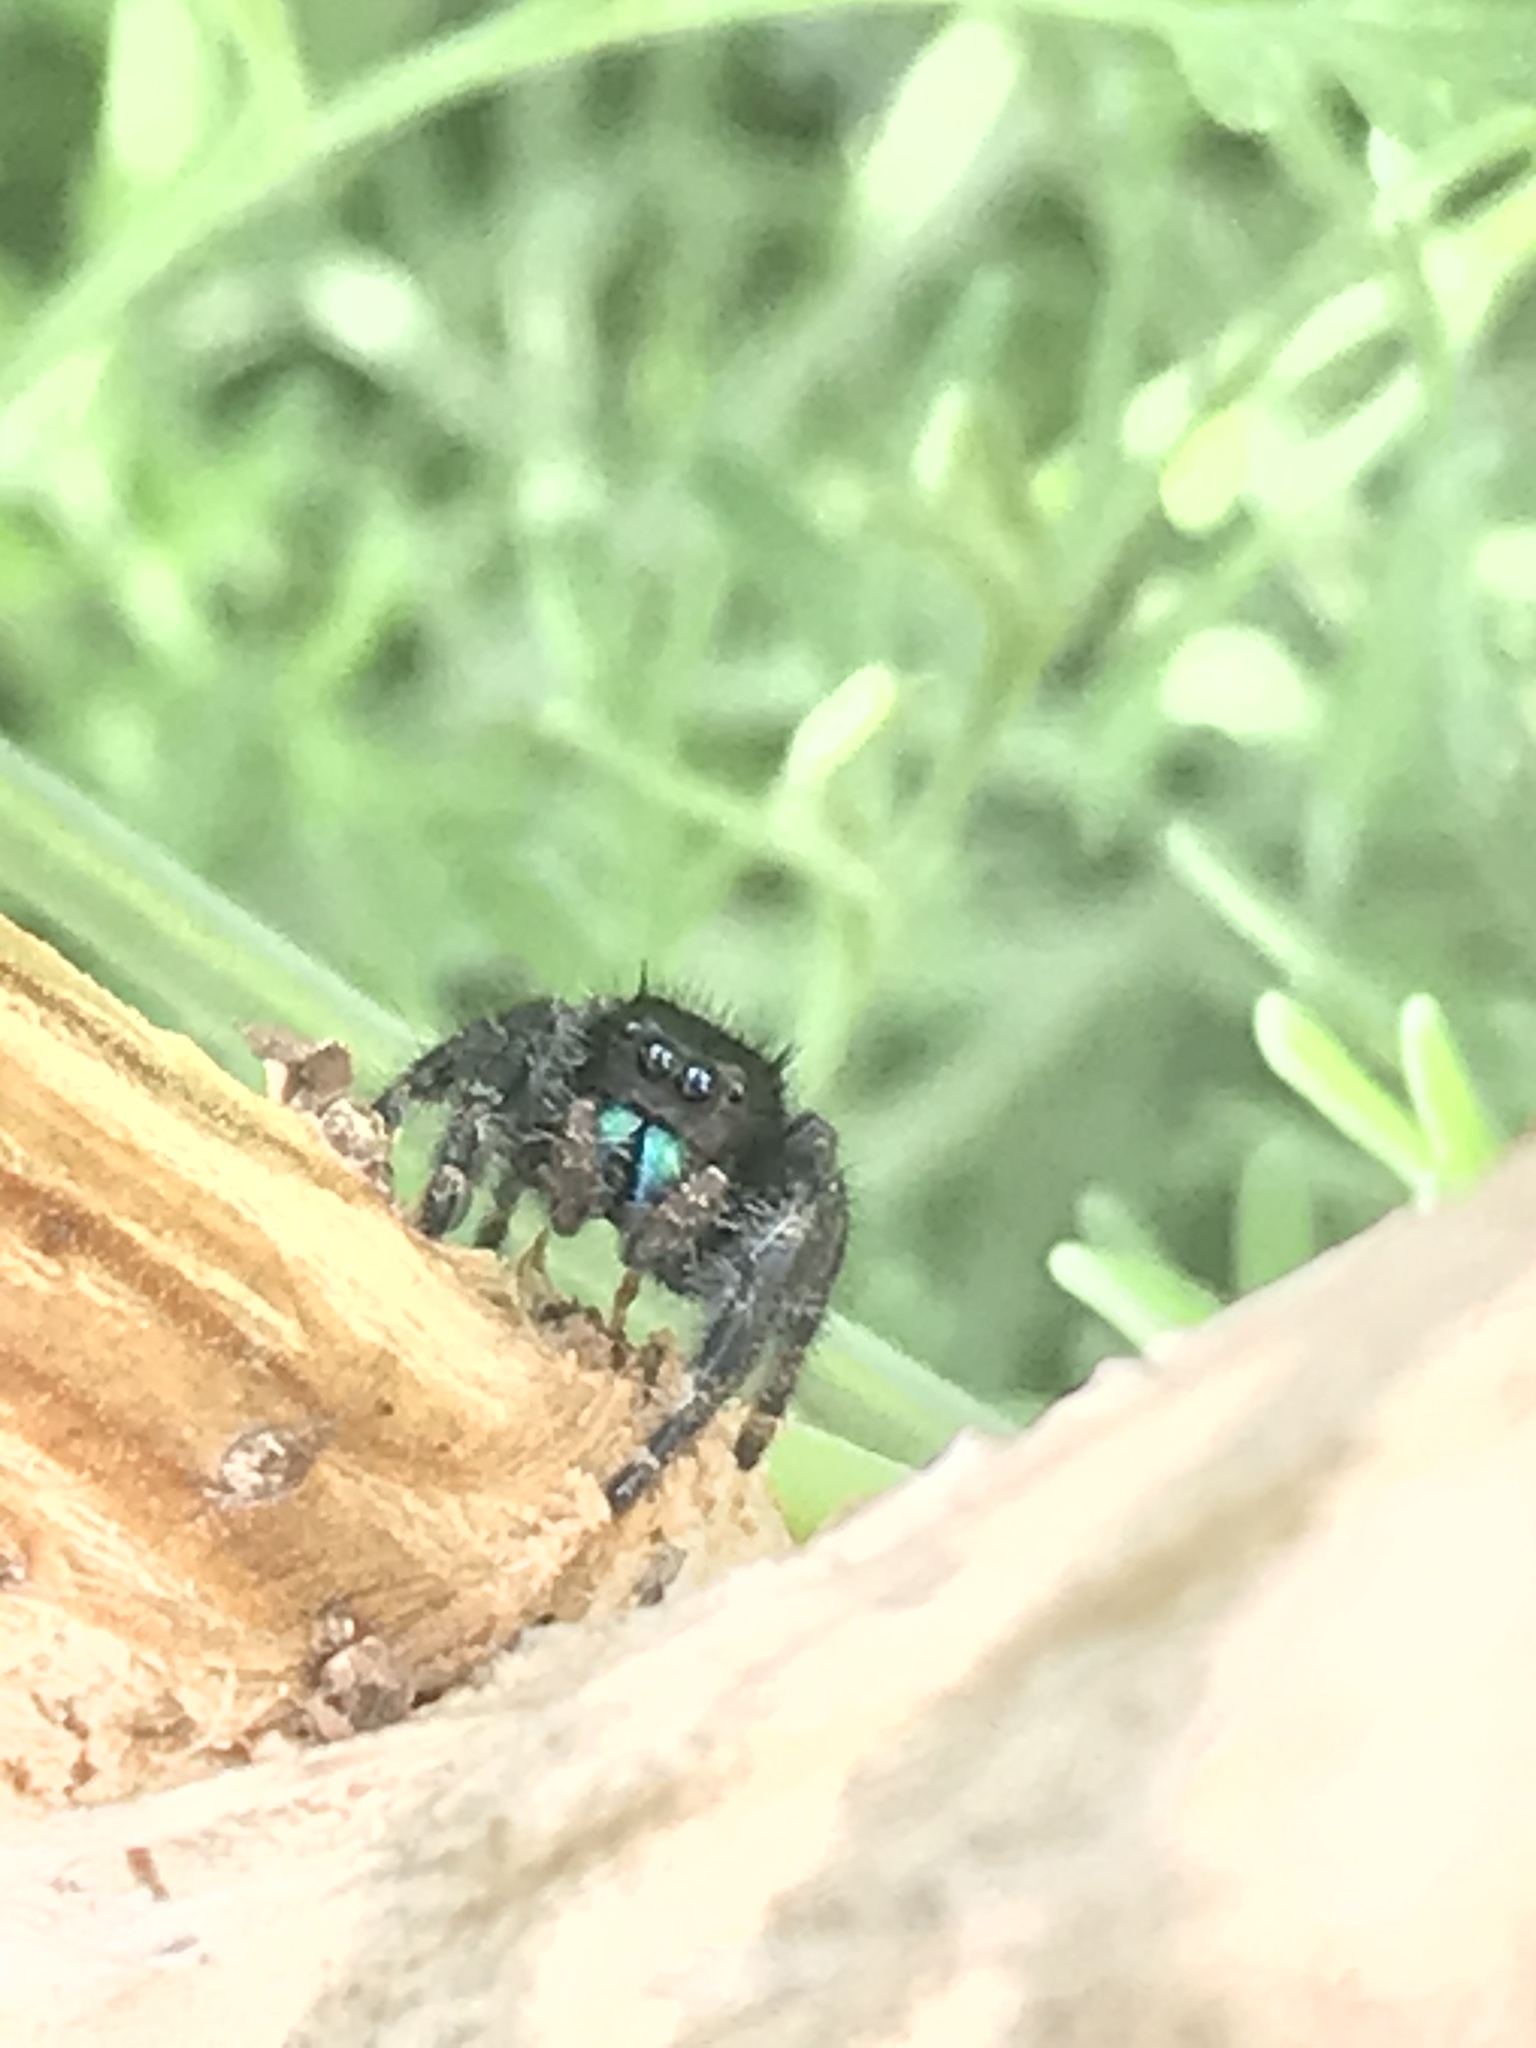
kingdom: Animalia
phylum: Arthropoda
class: Arachnida
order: Araneae
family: Salticidae
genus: Phidippus
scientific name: Phidippus audax
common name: Bold jumper
